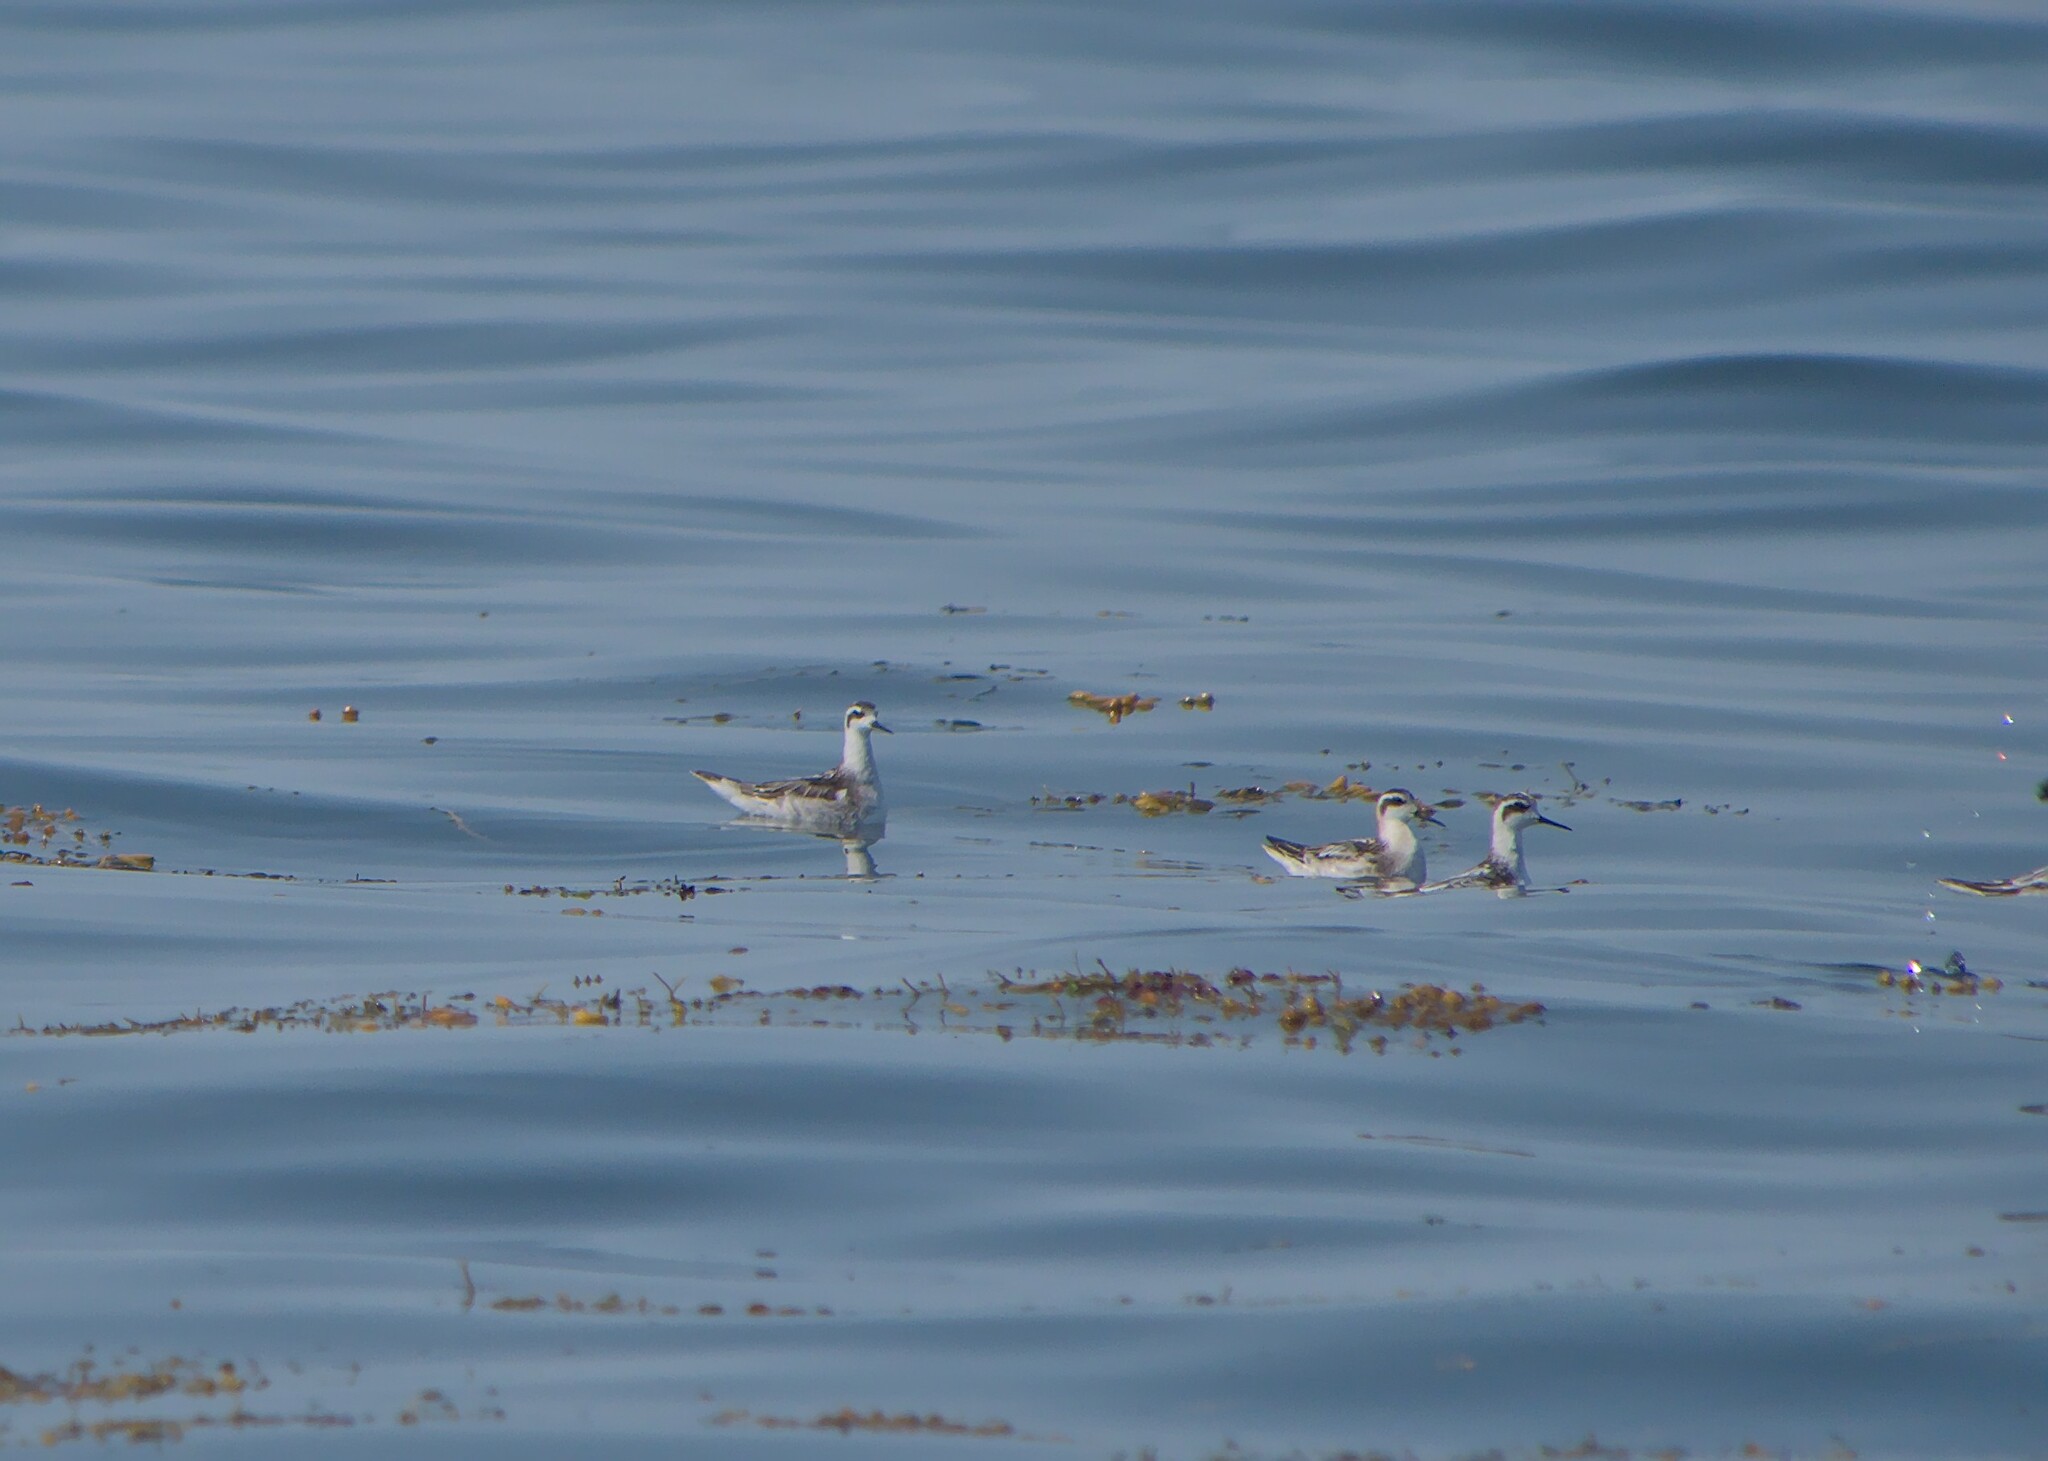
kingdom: Animalia
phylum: Chordata
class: Aves
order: Charadriiformes
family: Scolopacidae
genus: Phalaropus
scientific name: Phalaropus lobatus
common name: Red-necked phalarope
